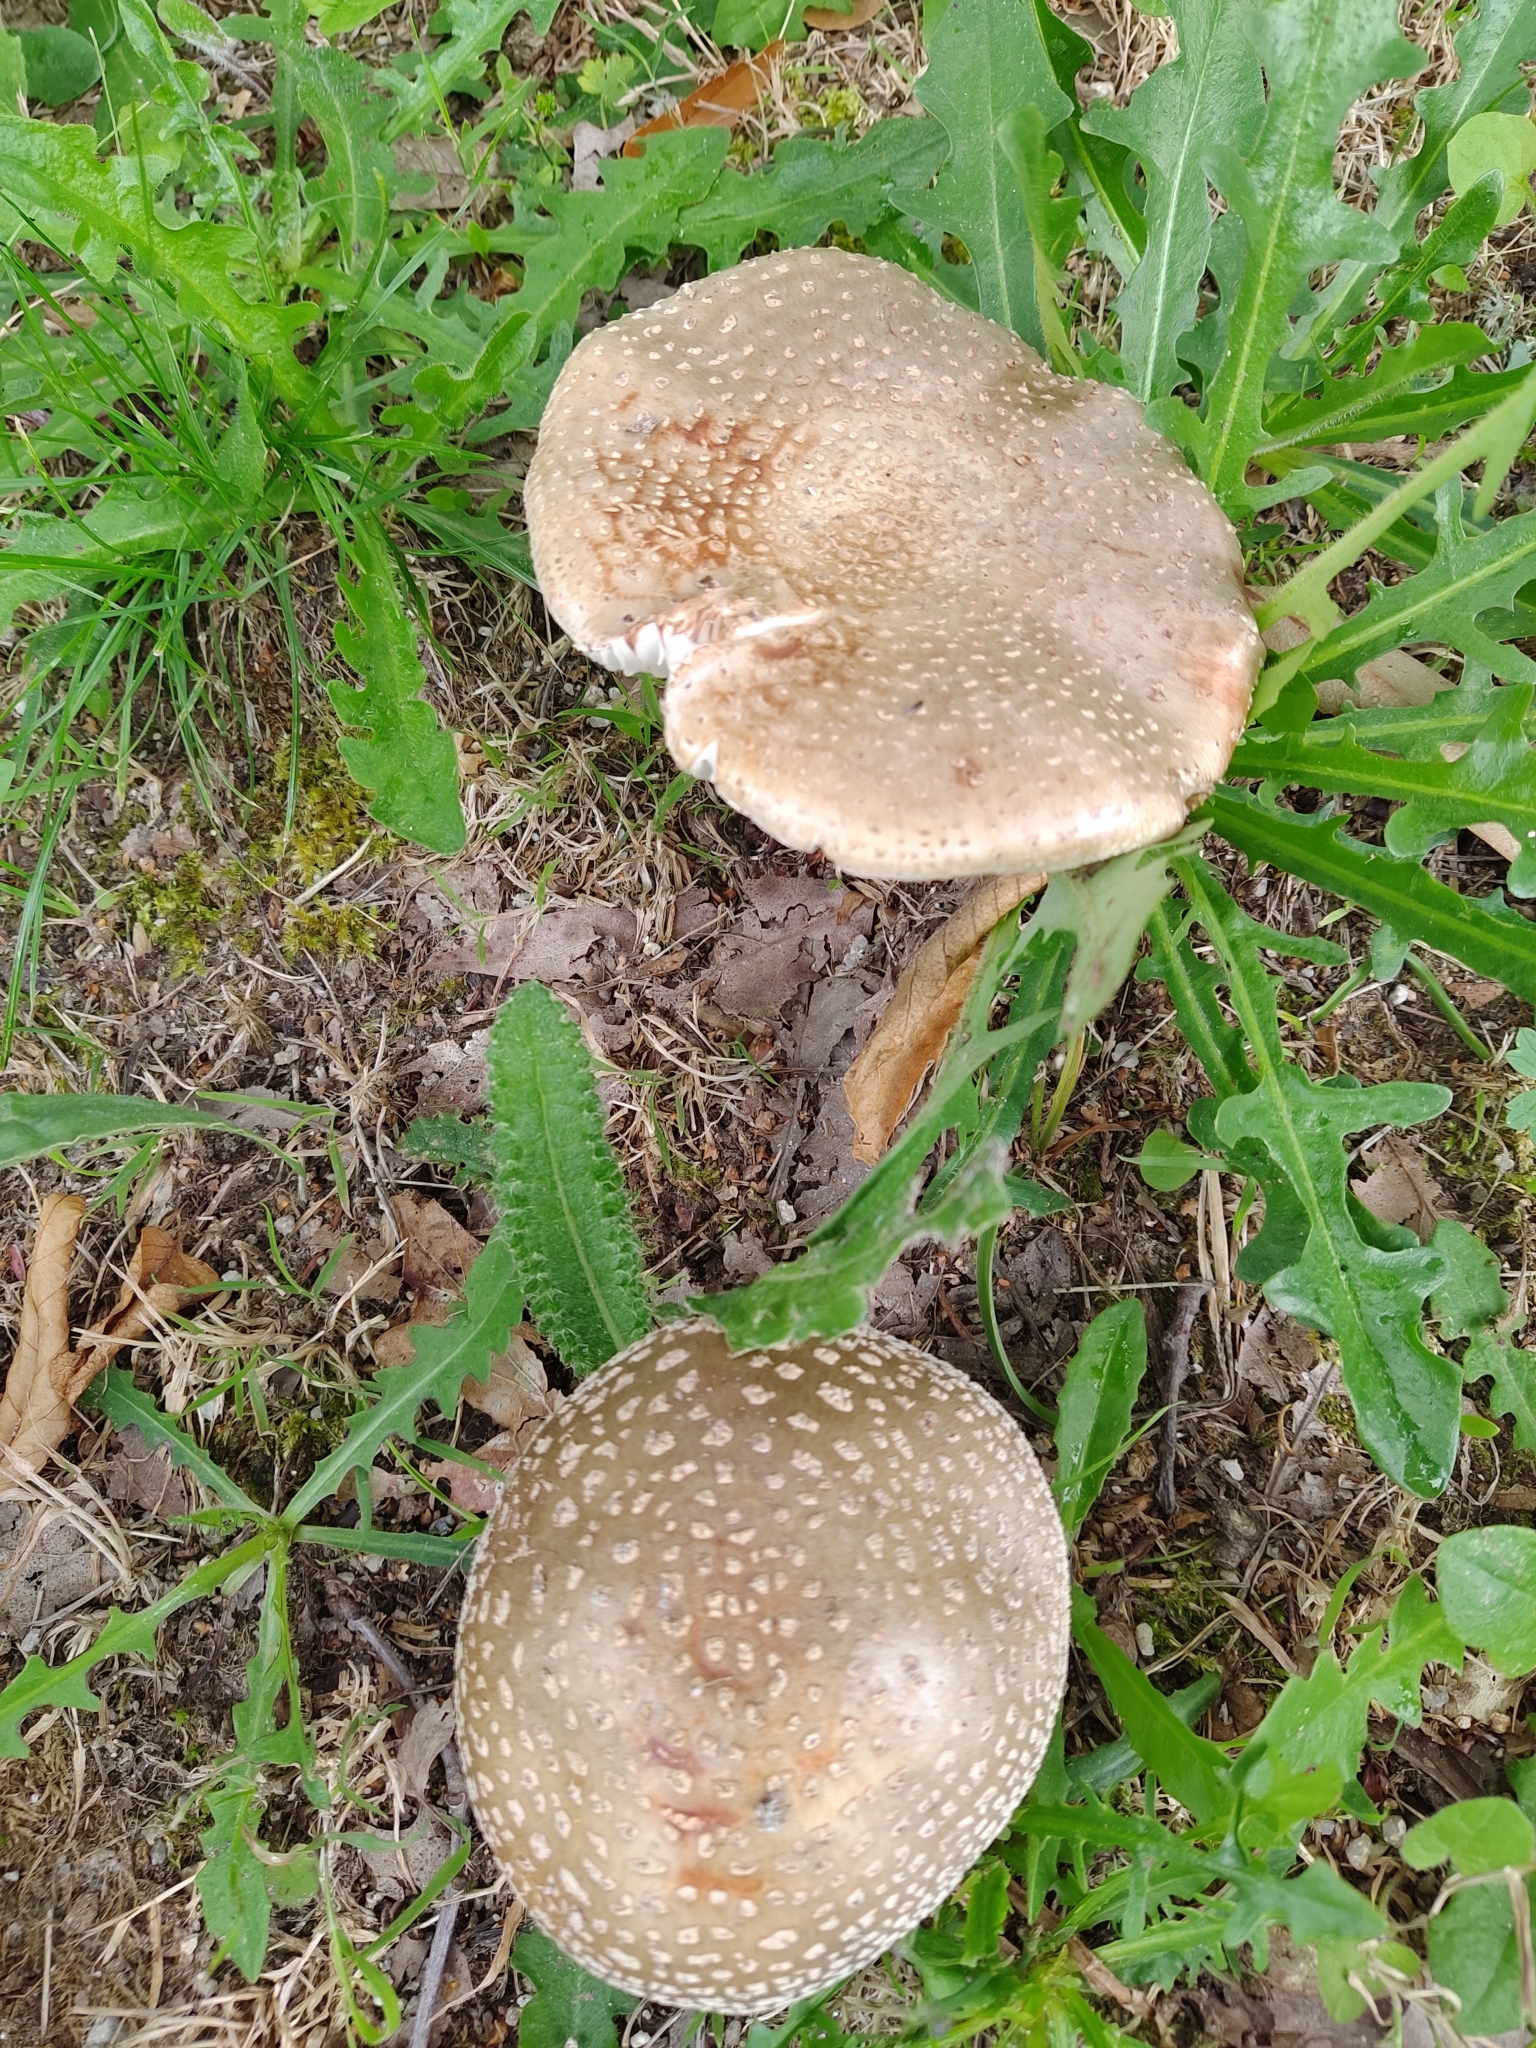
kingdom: Fungi
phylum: Basidiomycota
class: Agaricomycetes
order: Agaricales
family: Amanitaceae
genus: Amanita
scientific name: Amanita rubescens
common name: Blusher
